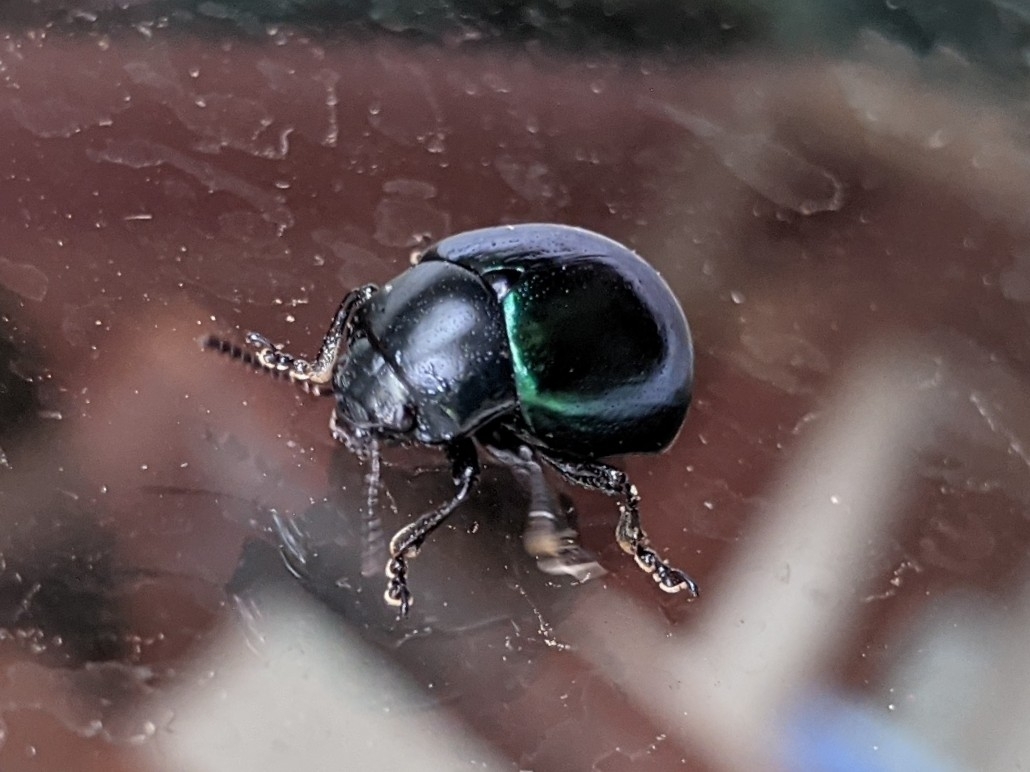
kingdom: Animalia
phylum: Arthropoda
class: Insecta
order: Coleoptera
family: Chrysomelidae
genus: Leptinotarsa
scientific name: Leptinotarsa haldemani
